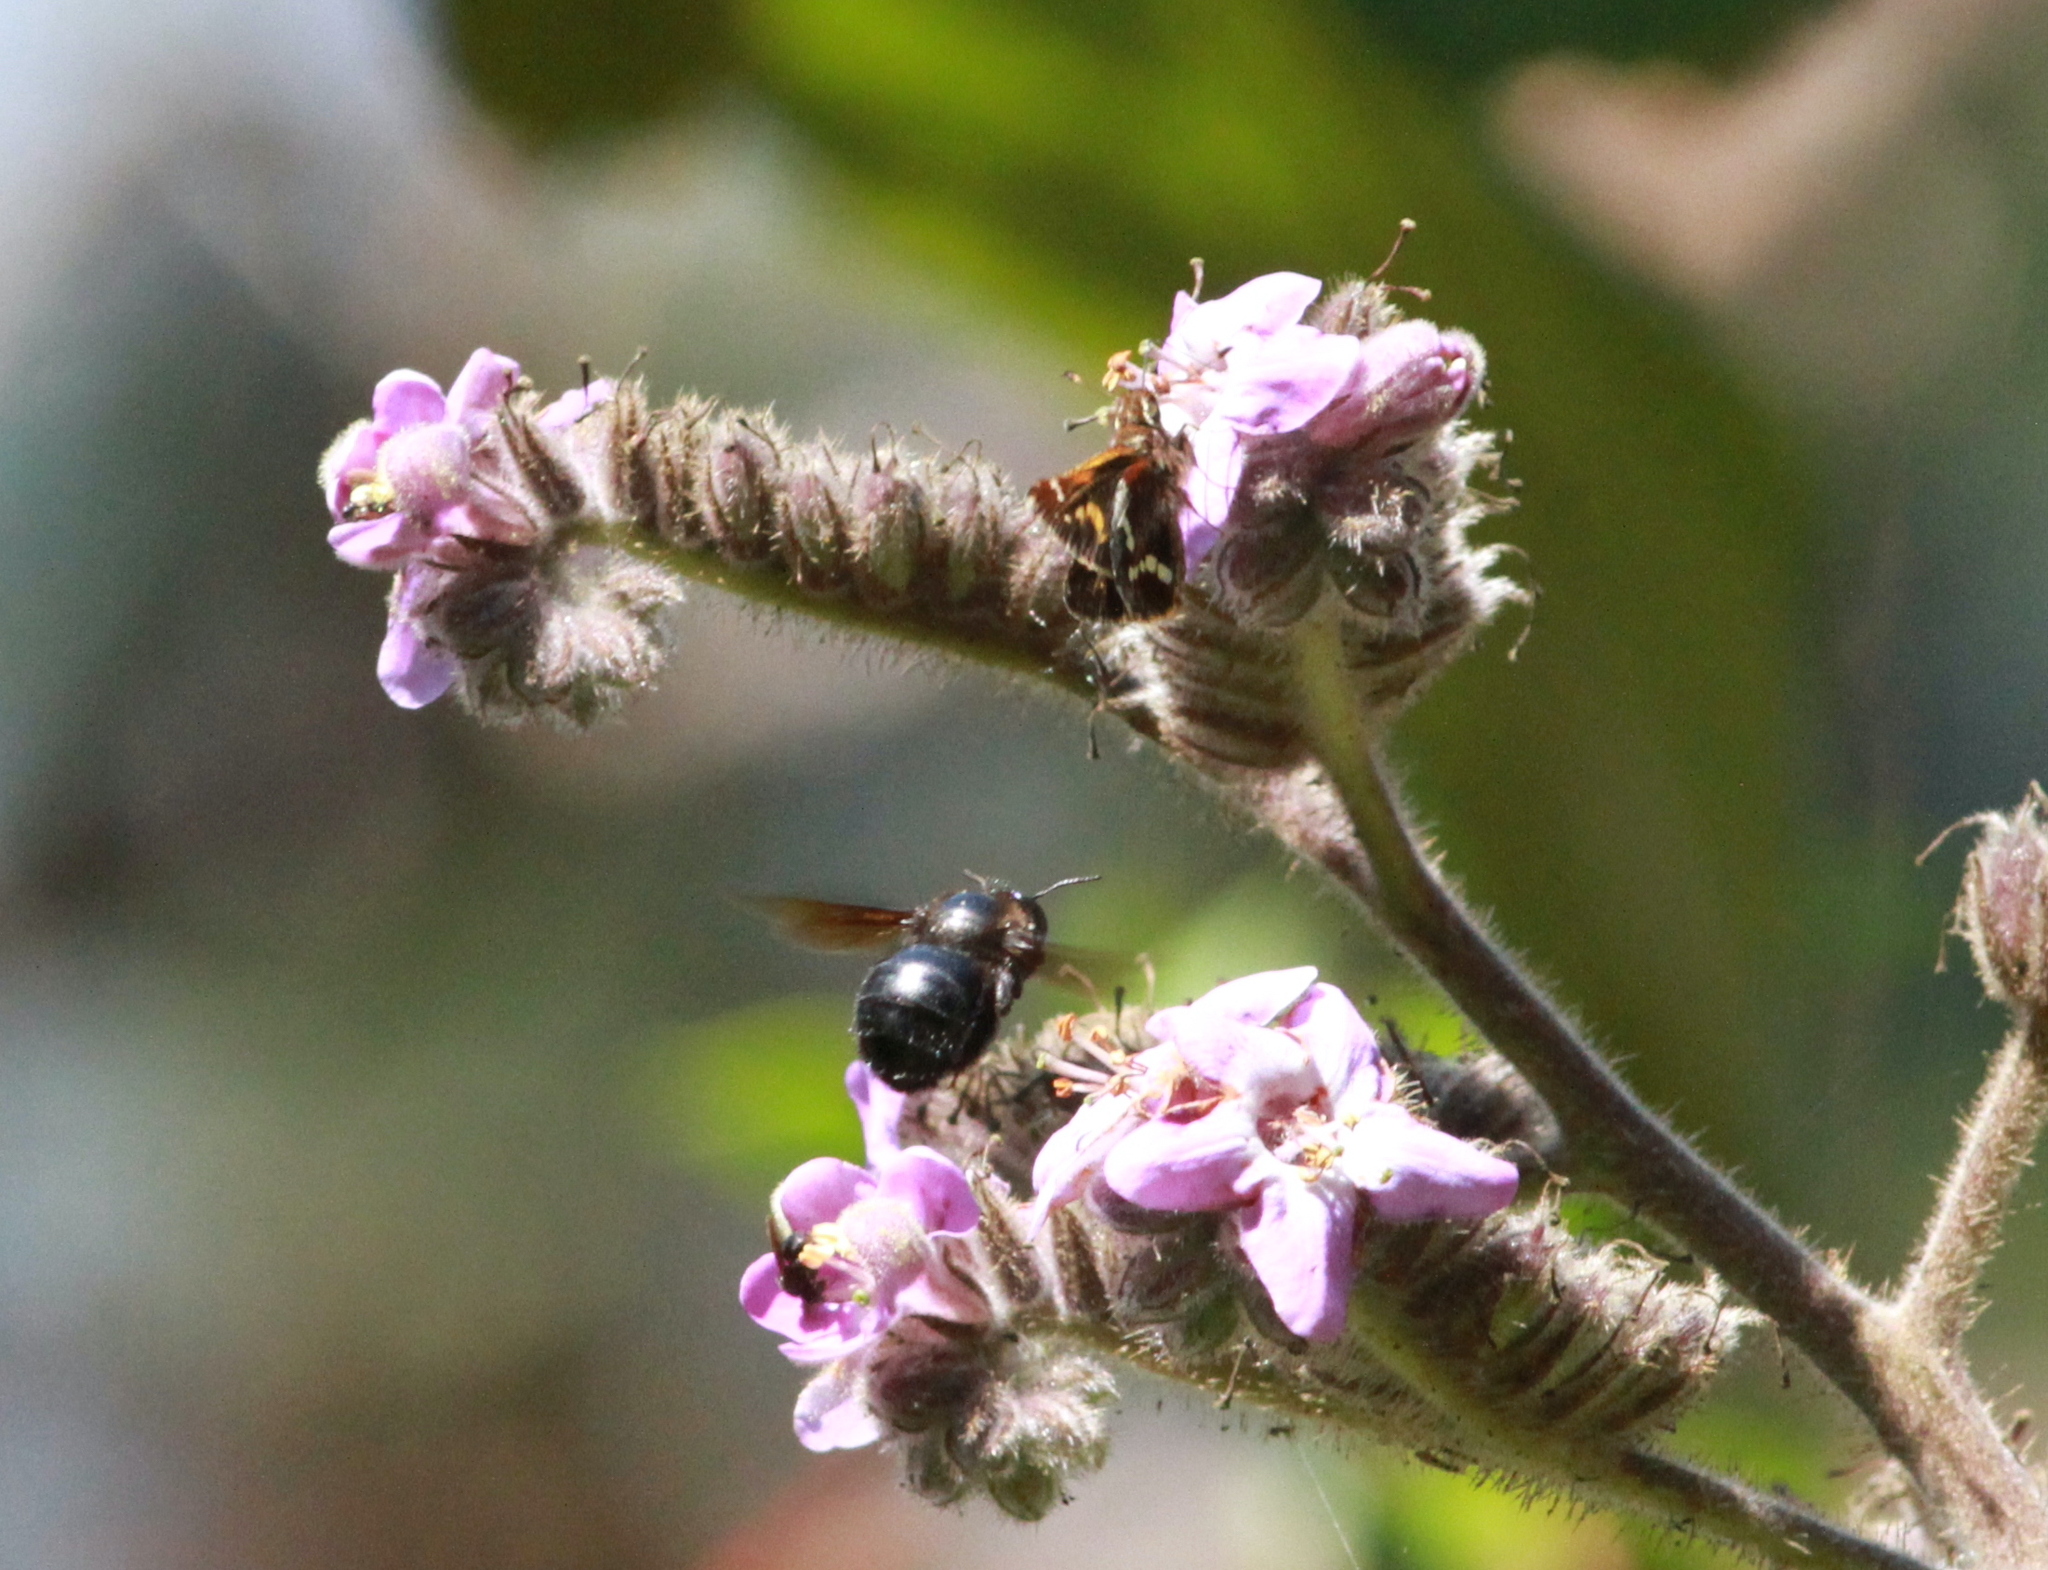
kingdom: Animalia
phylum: Arthropoda
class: Insecta
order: Lepidoptera
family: Hesperiidae
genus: Lon
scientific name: Lon monticola
